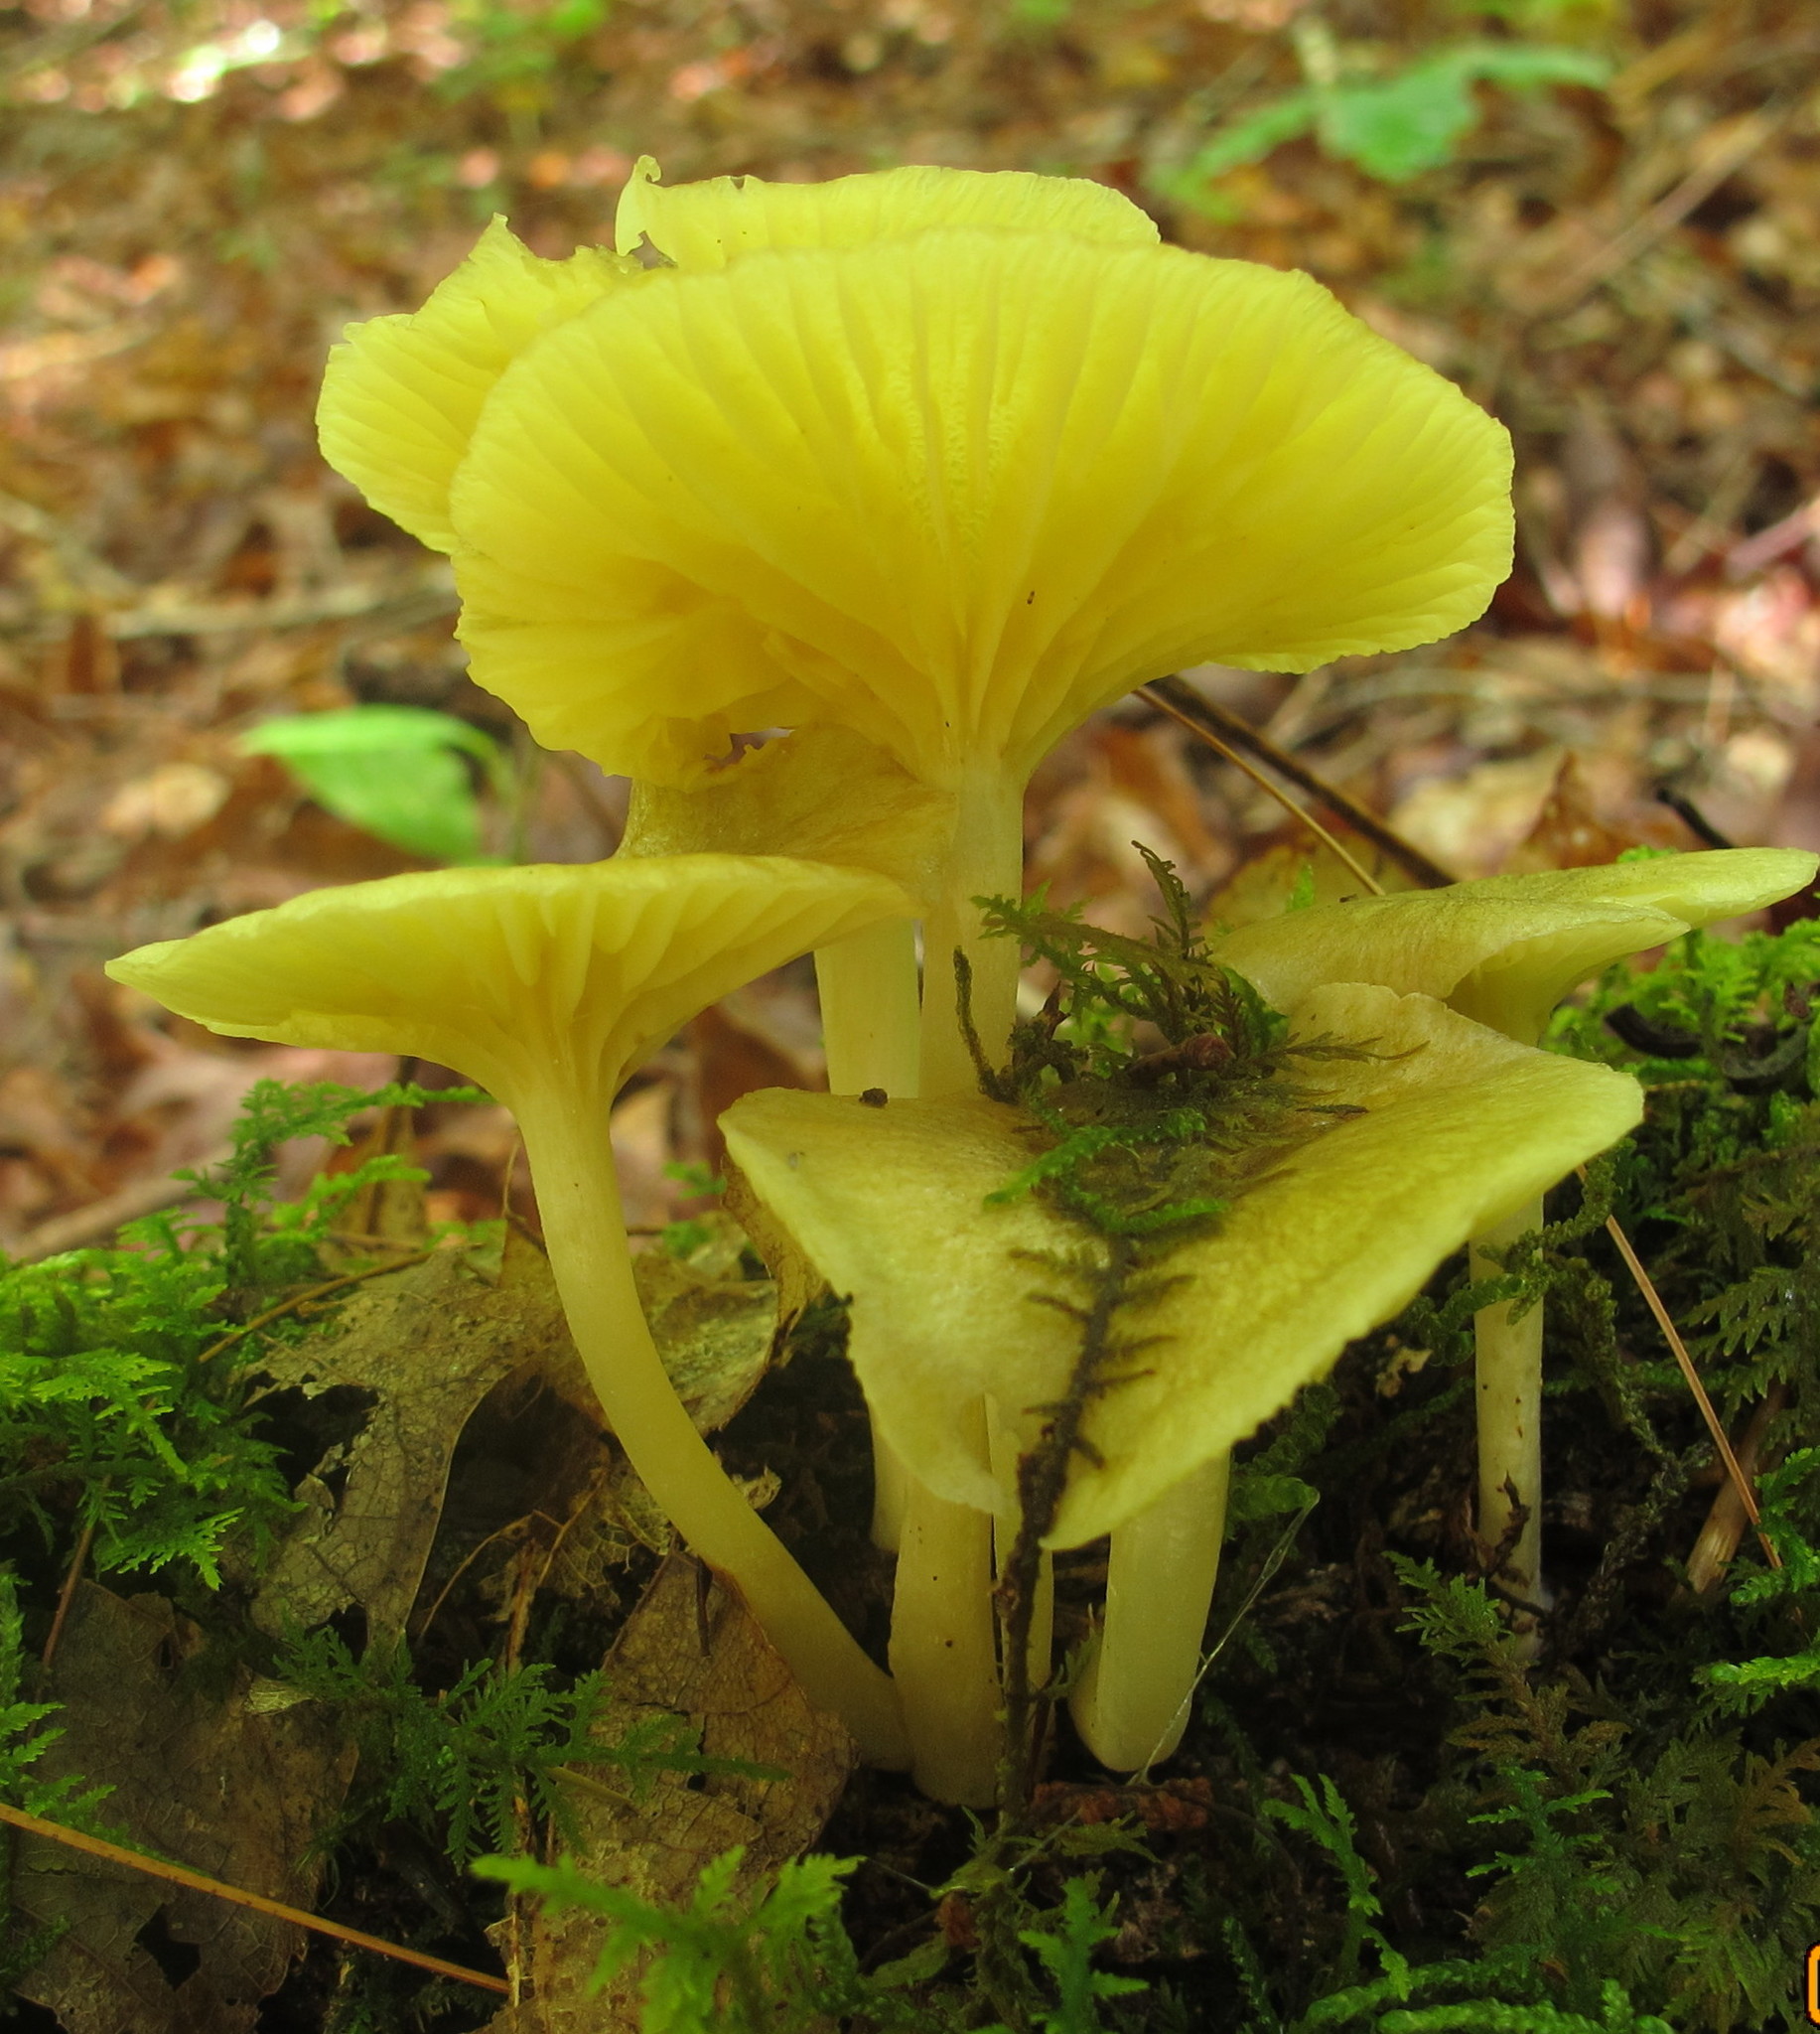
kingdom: Fungi
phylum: Basidiomycota
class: Agaricomycetes
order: Agaricales
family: Marasmiaceae
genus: Gerronema
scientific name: Gerronema strombodes
